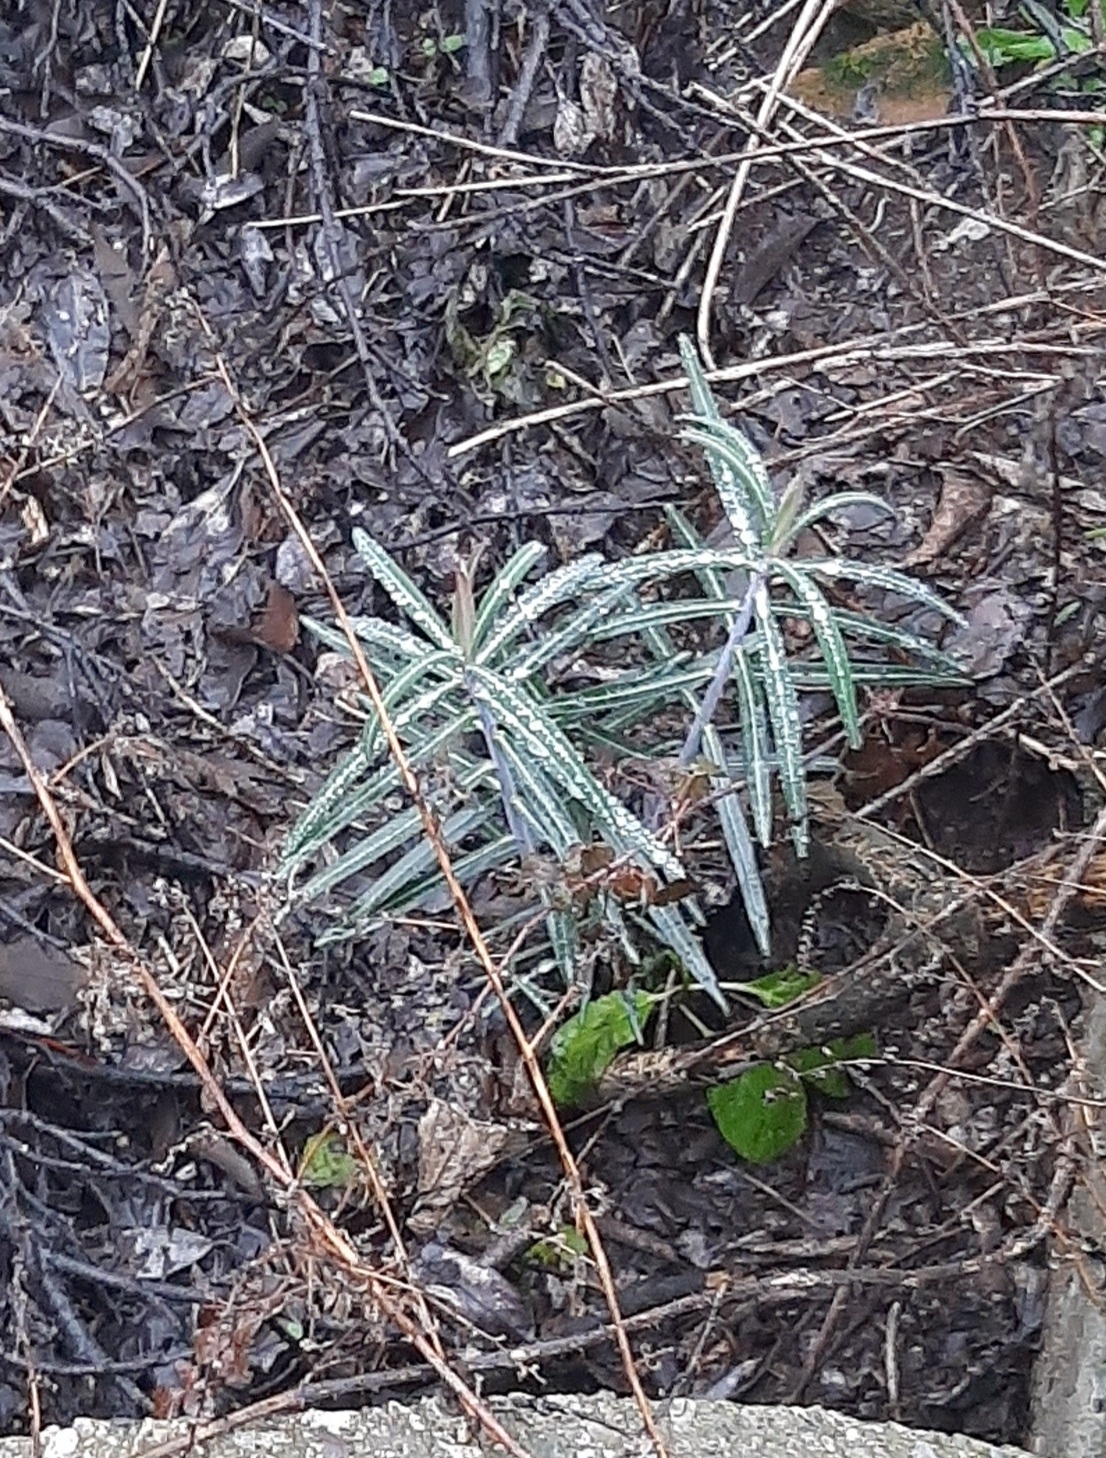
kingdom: Plantae
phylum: Tracheophyta
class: Magnoliopsida
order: Malpighiales
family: Euphorbiaceae
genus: Euphorbia
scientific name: Euphorbia lathyris
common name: Caper spurge
